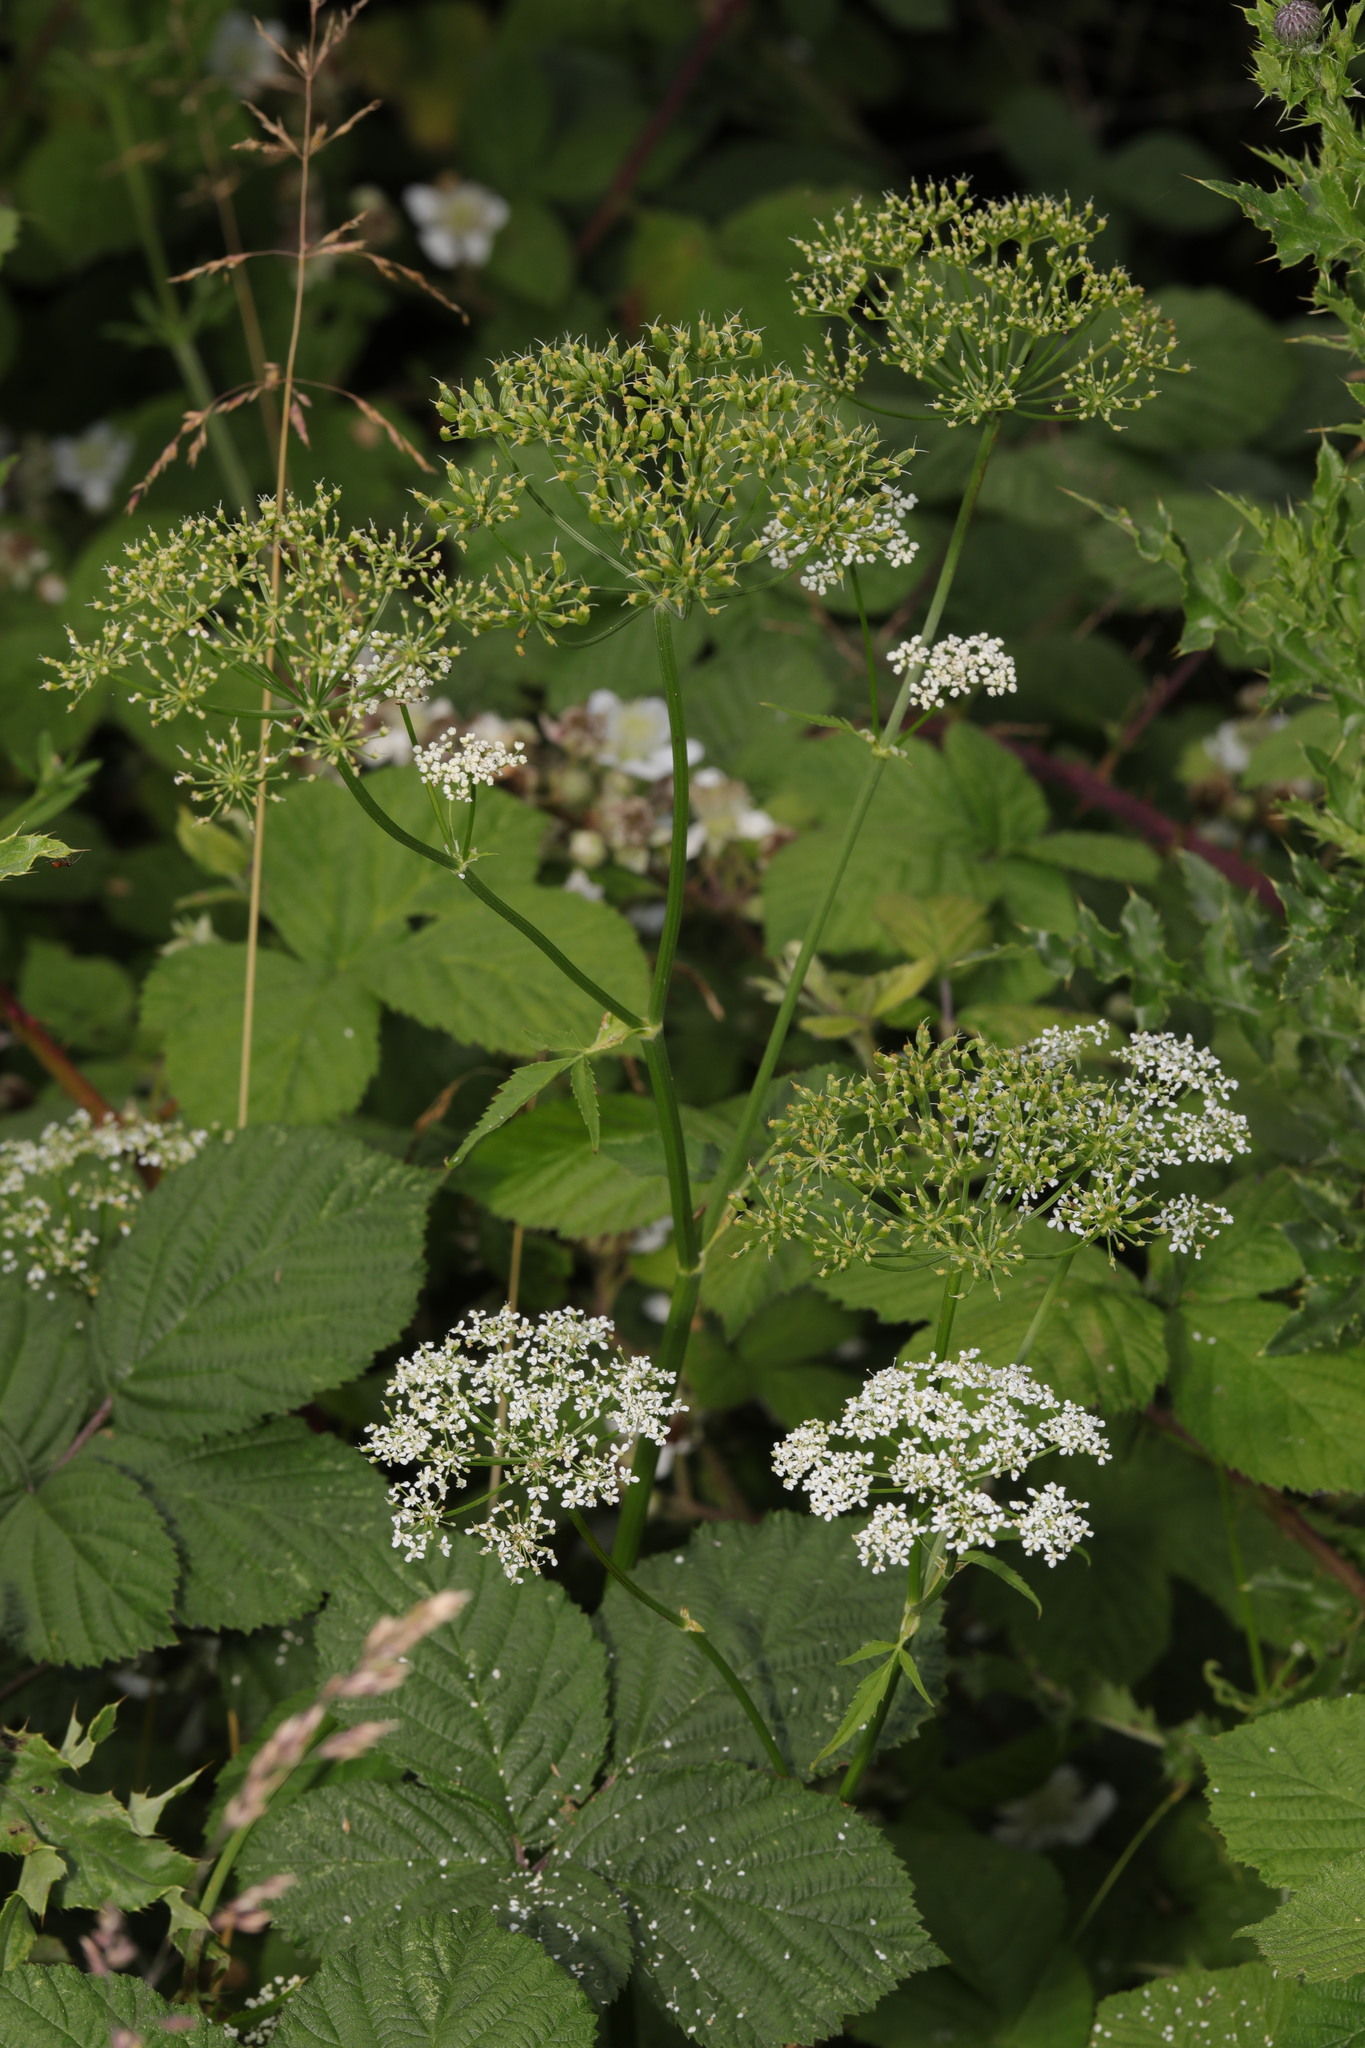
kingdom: Plantae
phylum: Tracheophyta
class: Magnoliopsida
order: Apiales
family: Apiaceae
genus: Aegopodium
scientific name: Aegopodium podagraria
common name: Ground-elder
